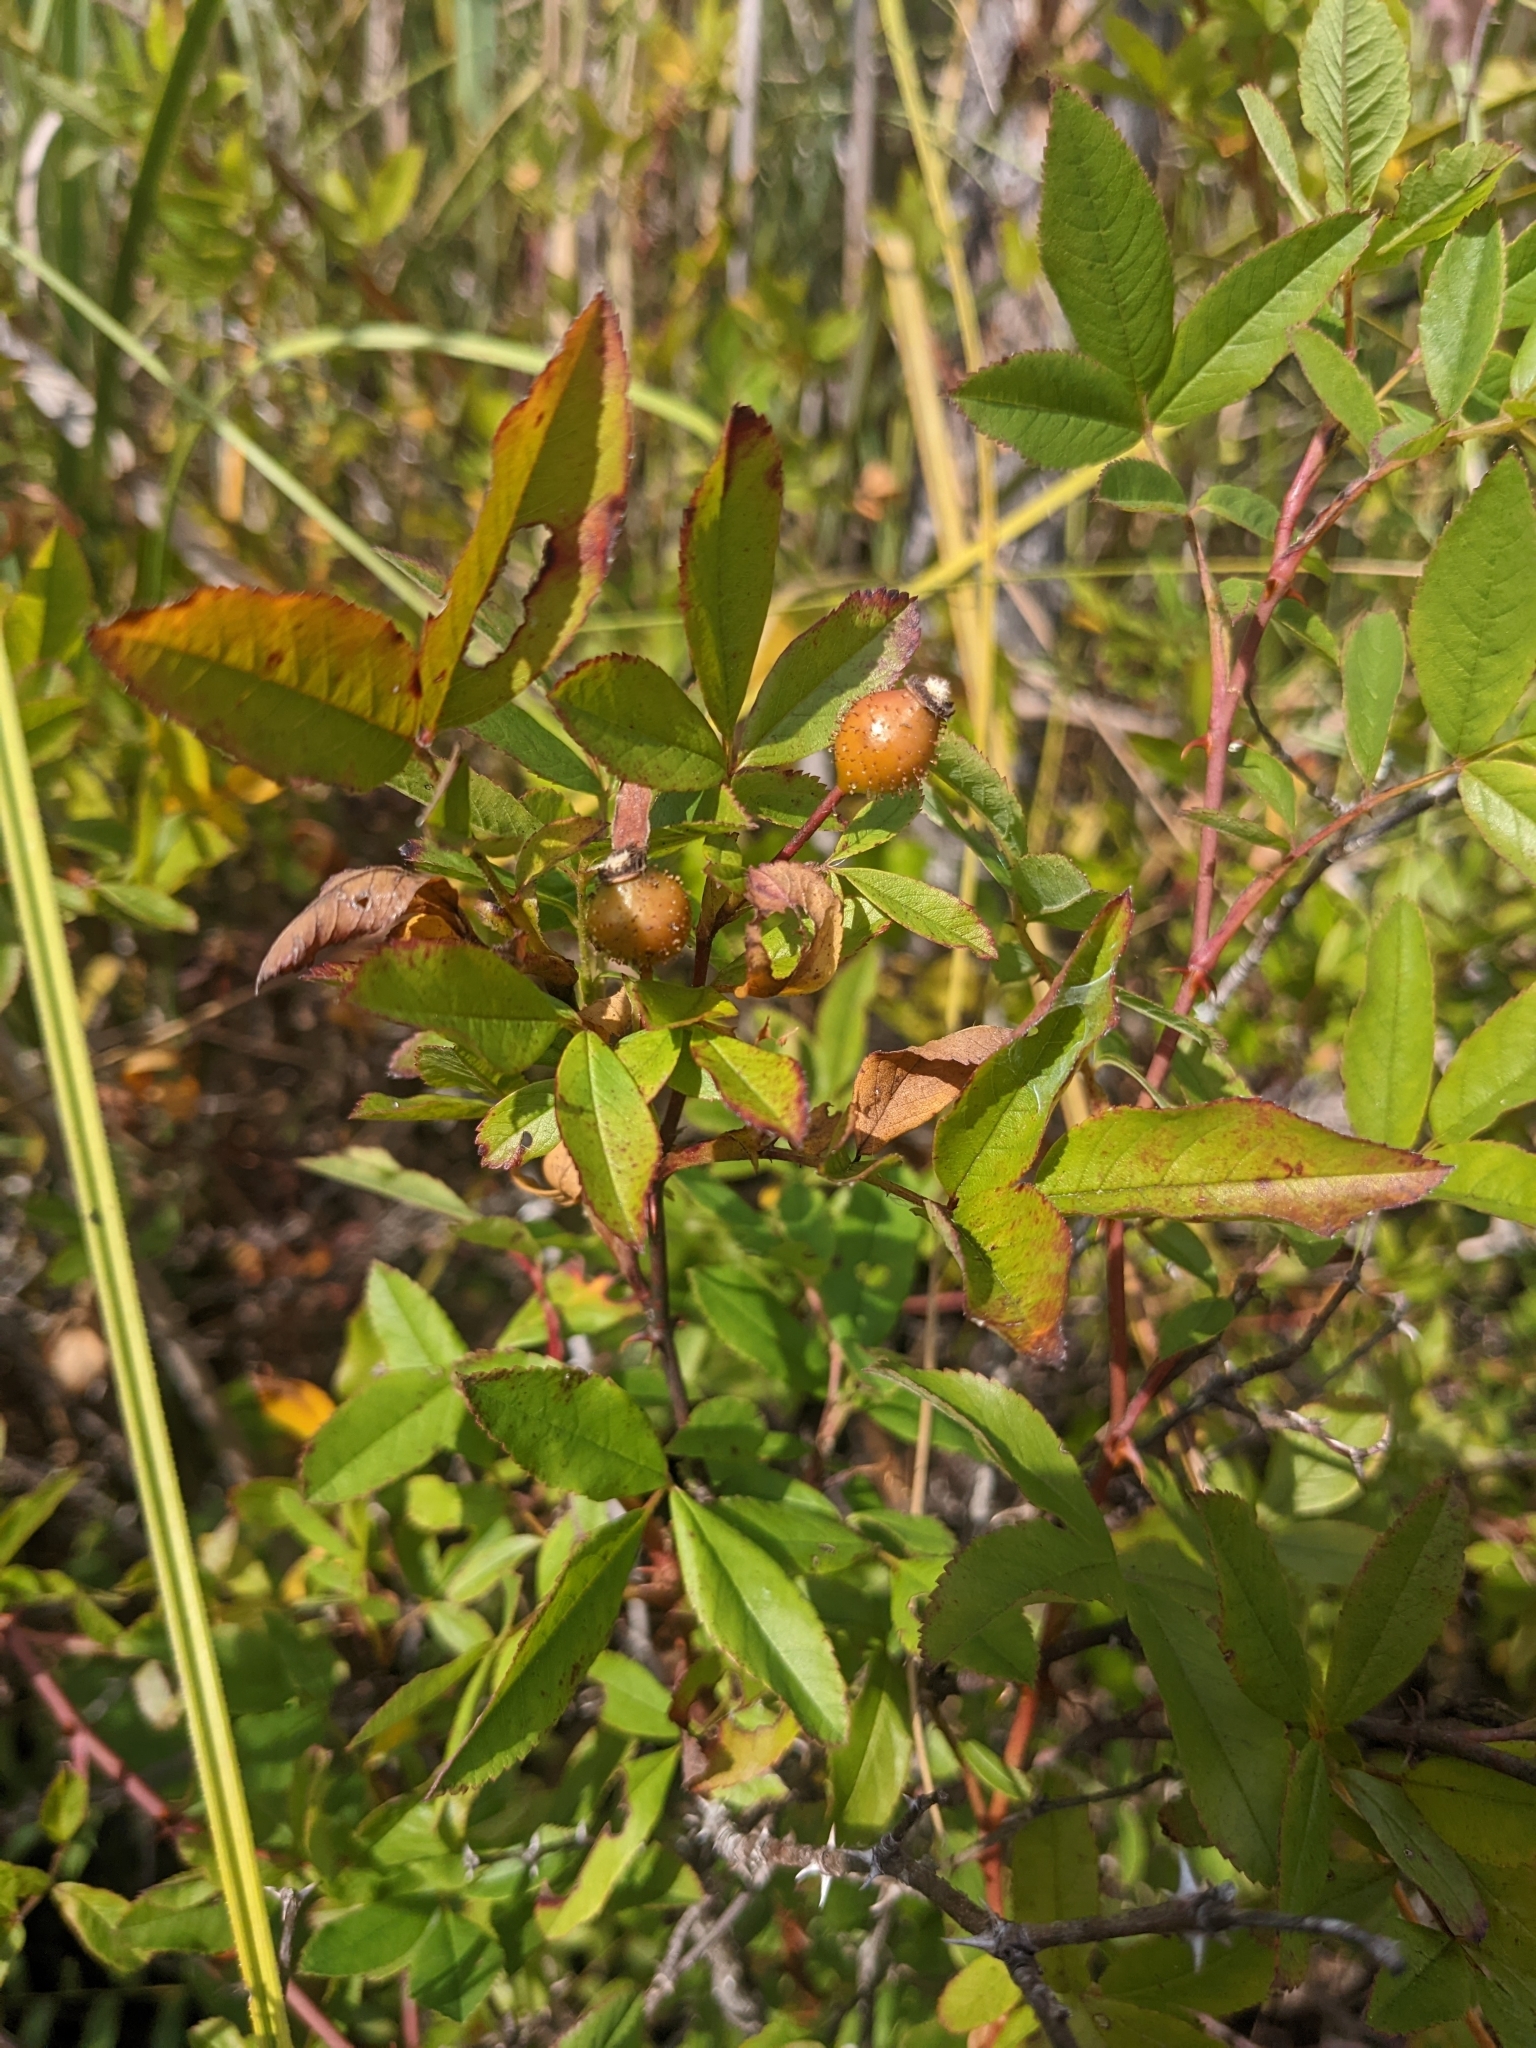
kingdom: Plantae
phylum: Tracheophyta
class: Magnoliopsida
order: Rosales
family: Rosaceae
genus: Rosa
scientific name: Rosa palustris
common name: Swamp rose
